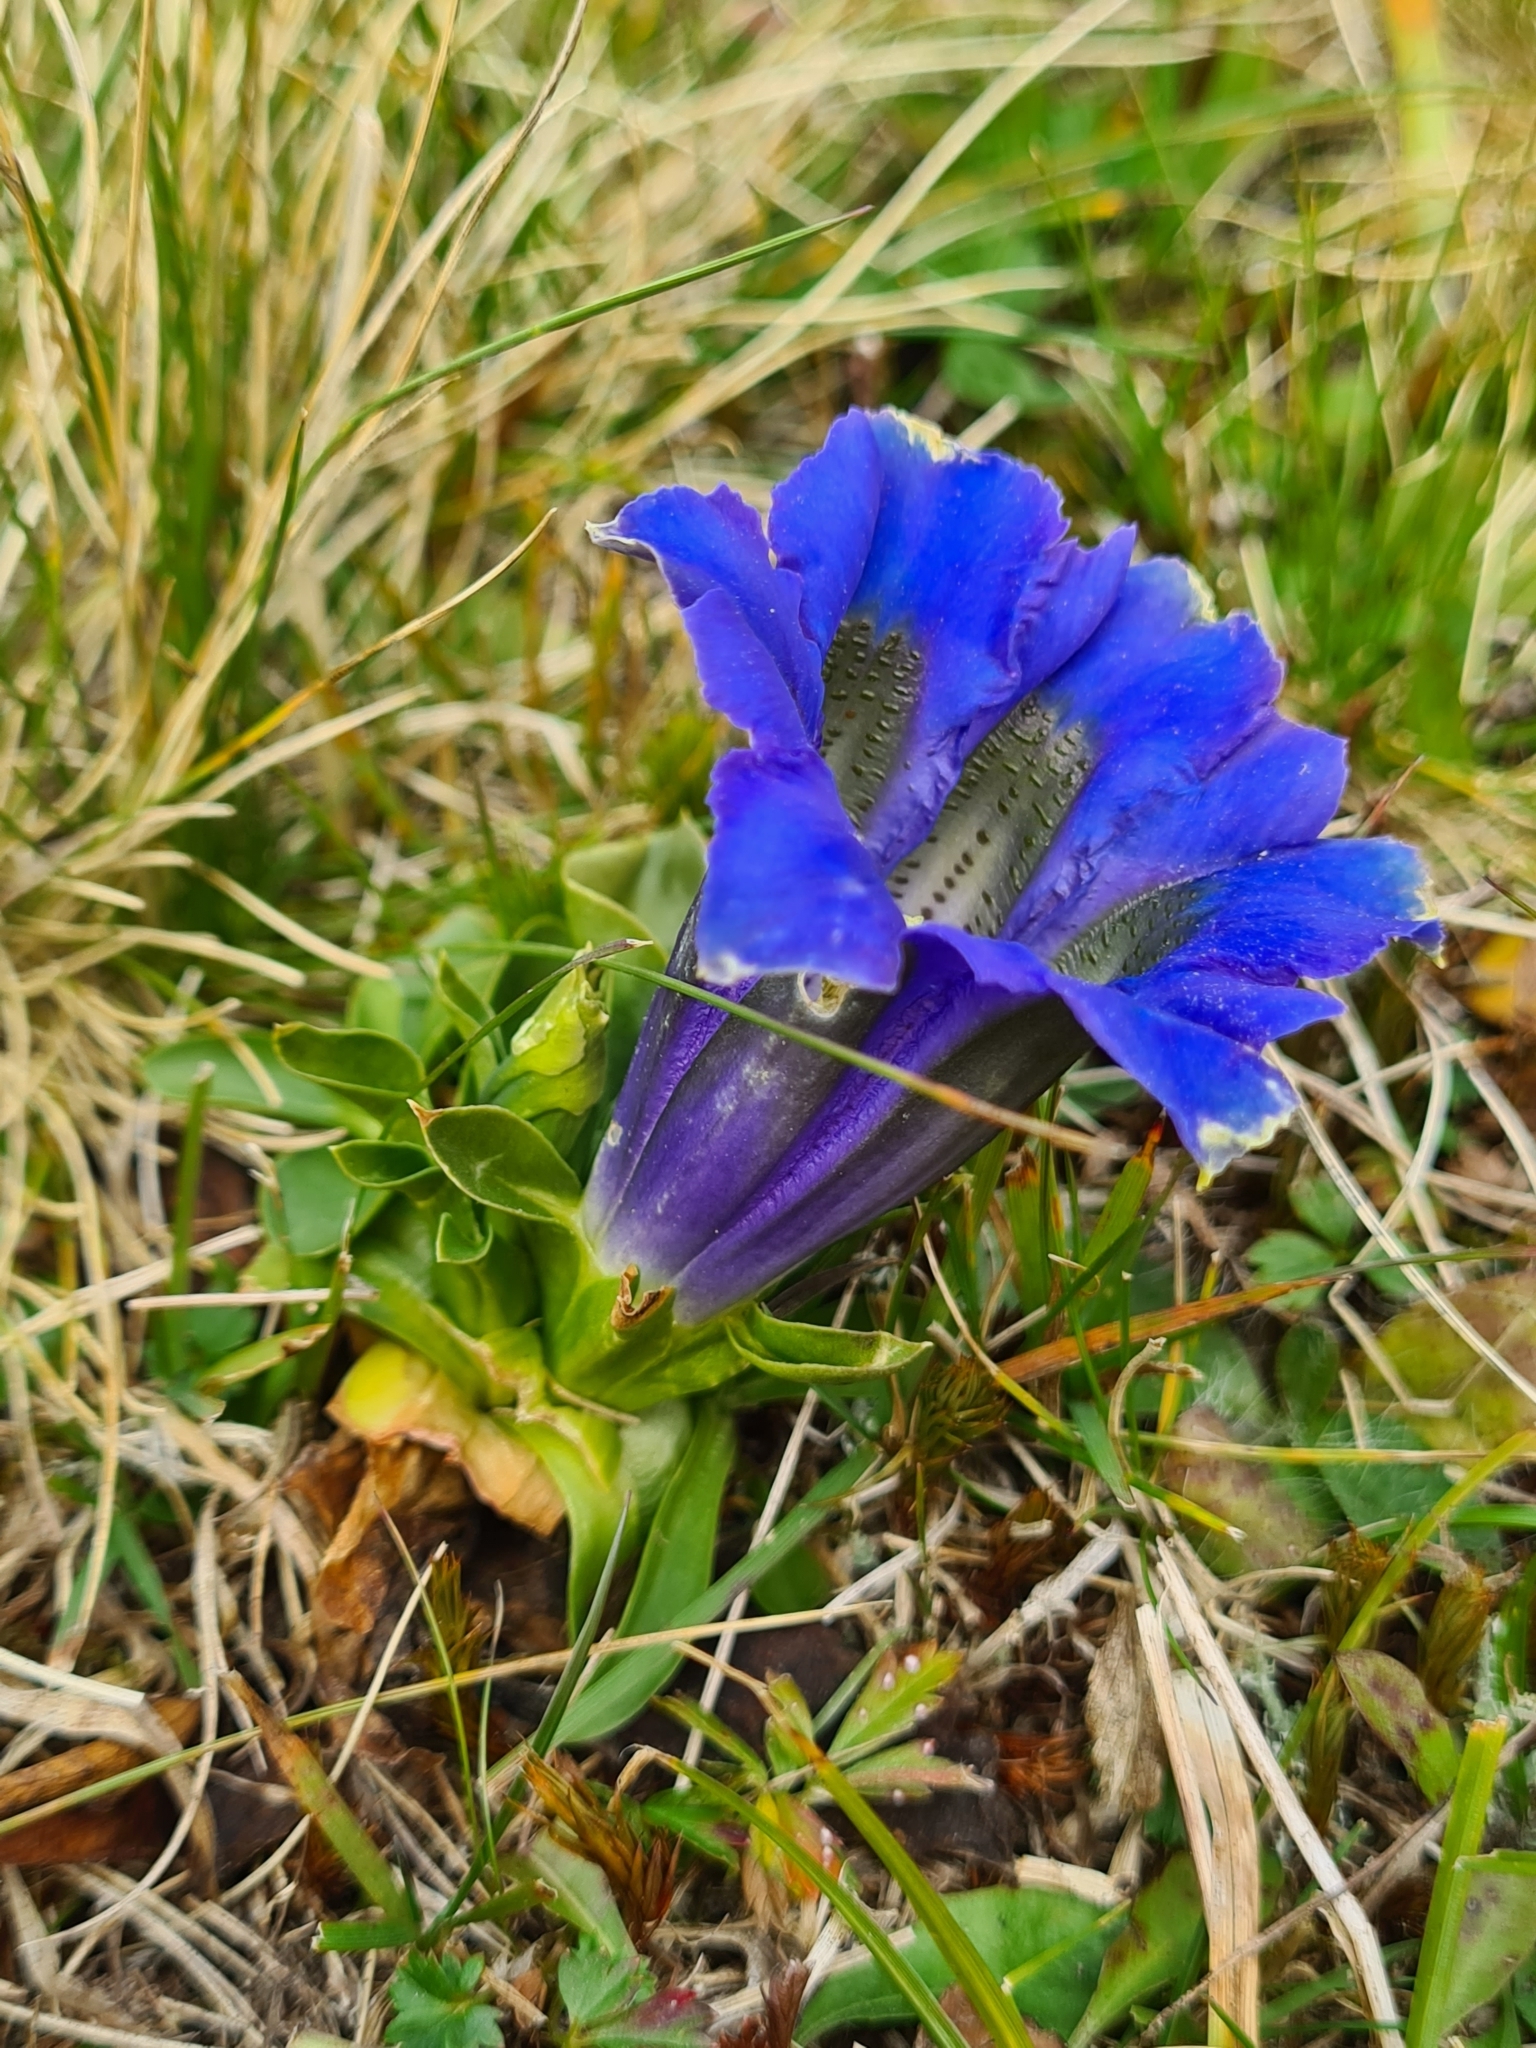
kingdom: Plantae
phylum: Tracheophyta
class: Magnoliopsida
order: Gentianales
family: Gentianaceae
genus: Gentiana
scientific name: Gentiana acaulis
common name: Trumpet gentian
